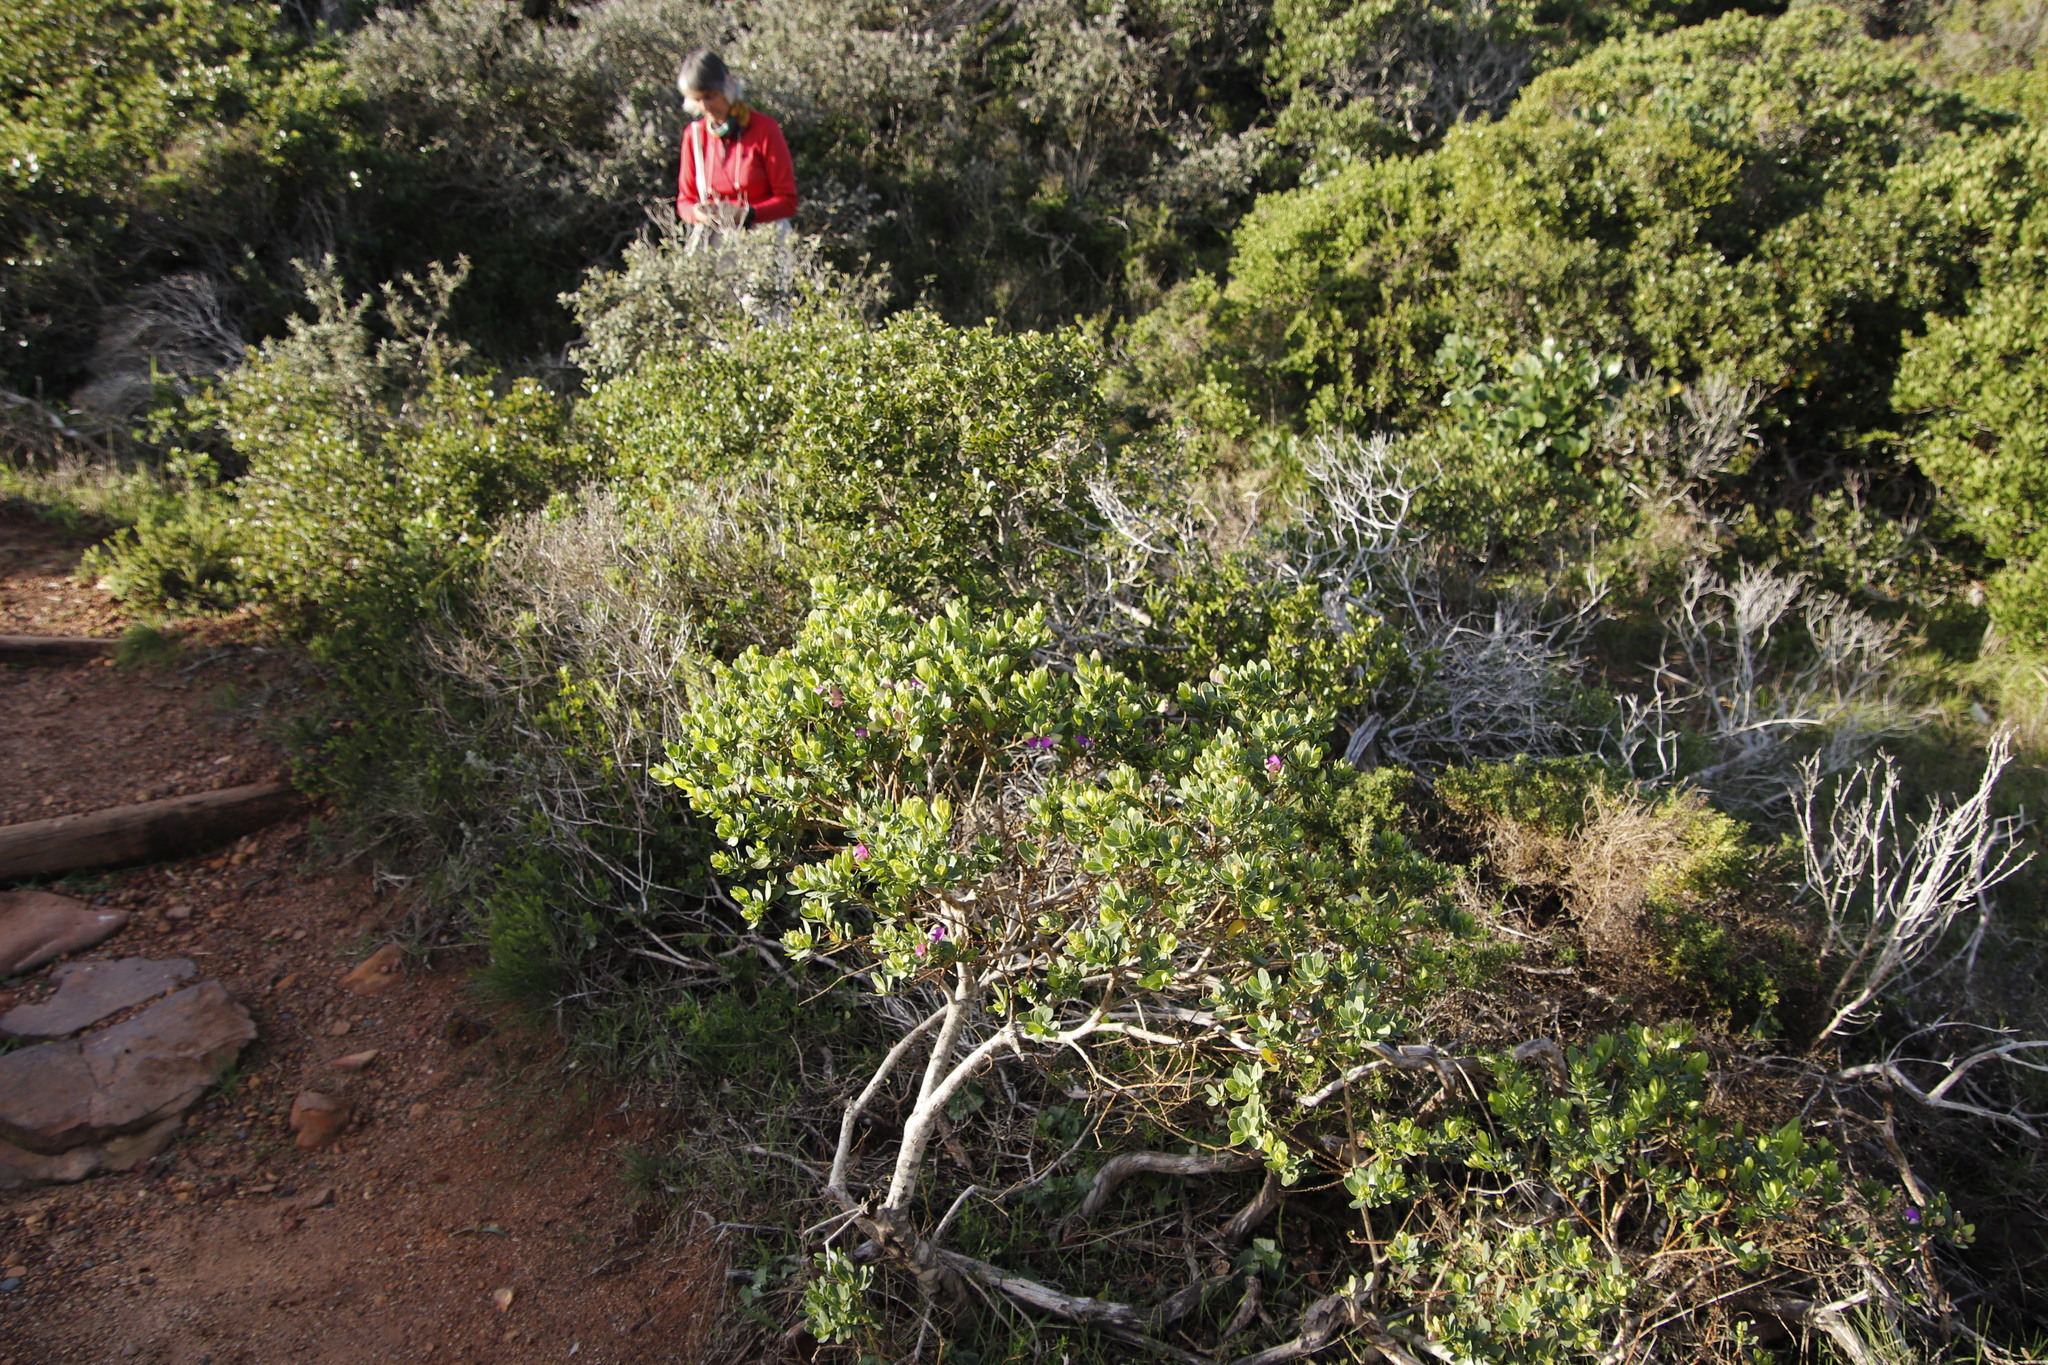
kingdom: Plantae
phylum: Tracheophyta
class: Magnoliopsida
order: Fabales
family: Polygalaceae
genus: Polygala
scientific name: Polygala myrtifolia
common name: Myrtle-leaf milkwort
